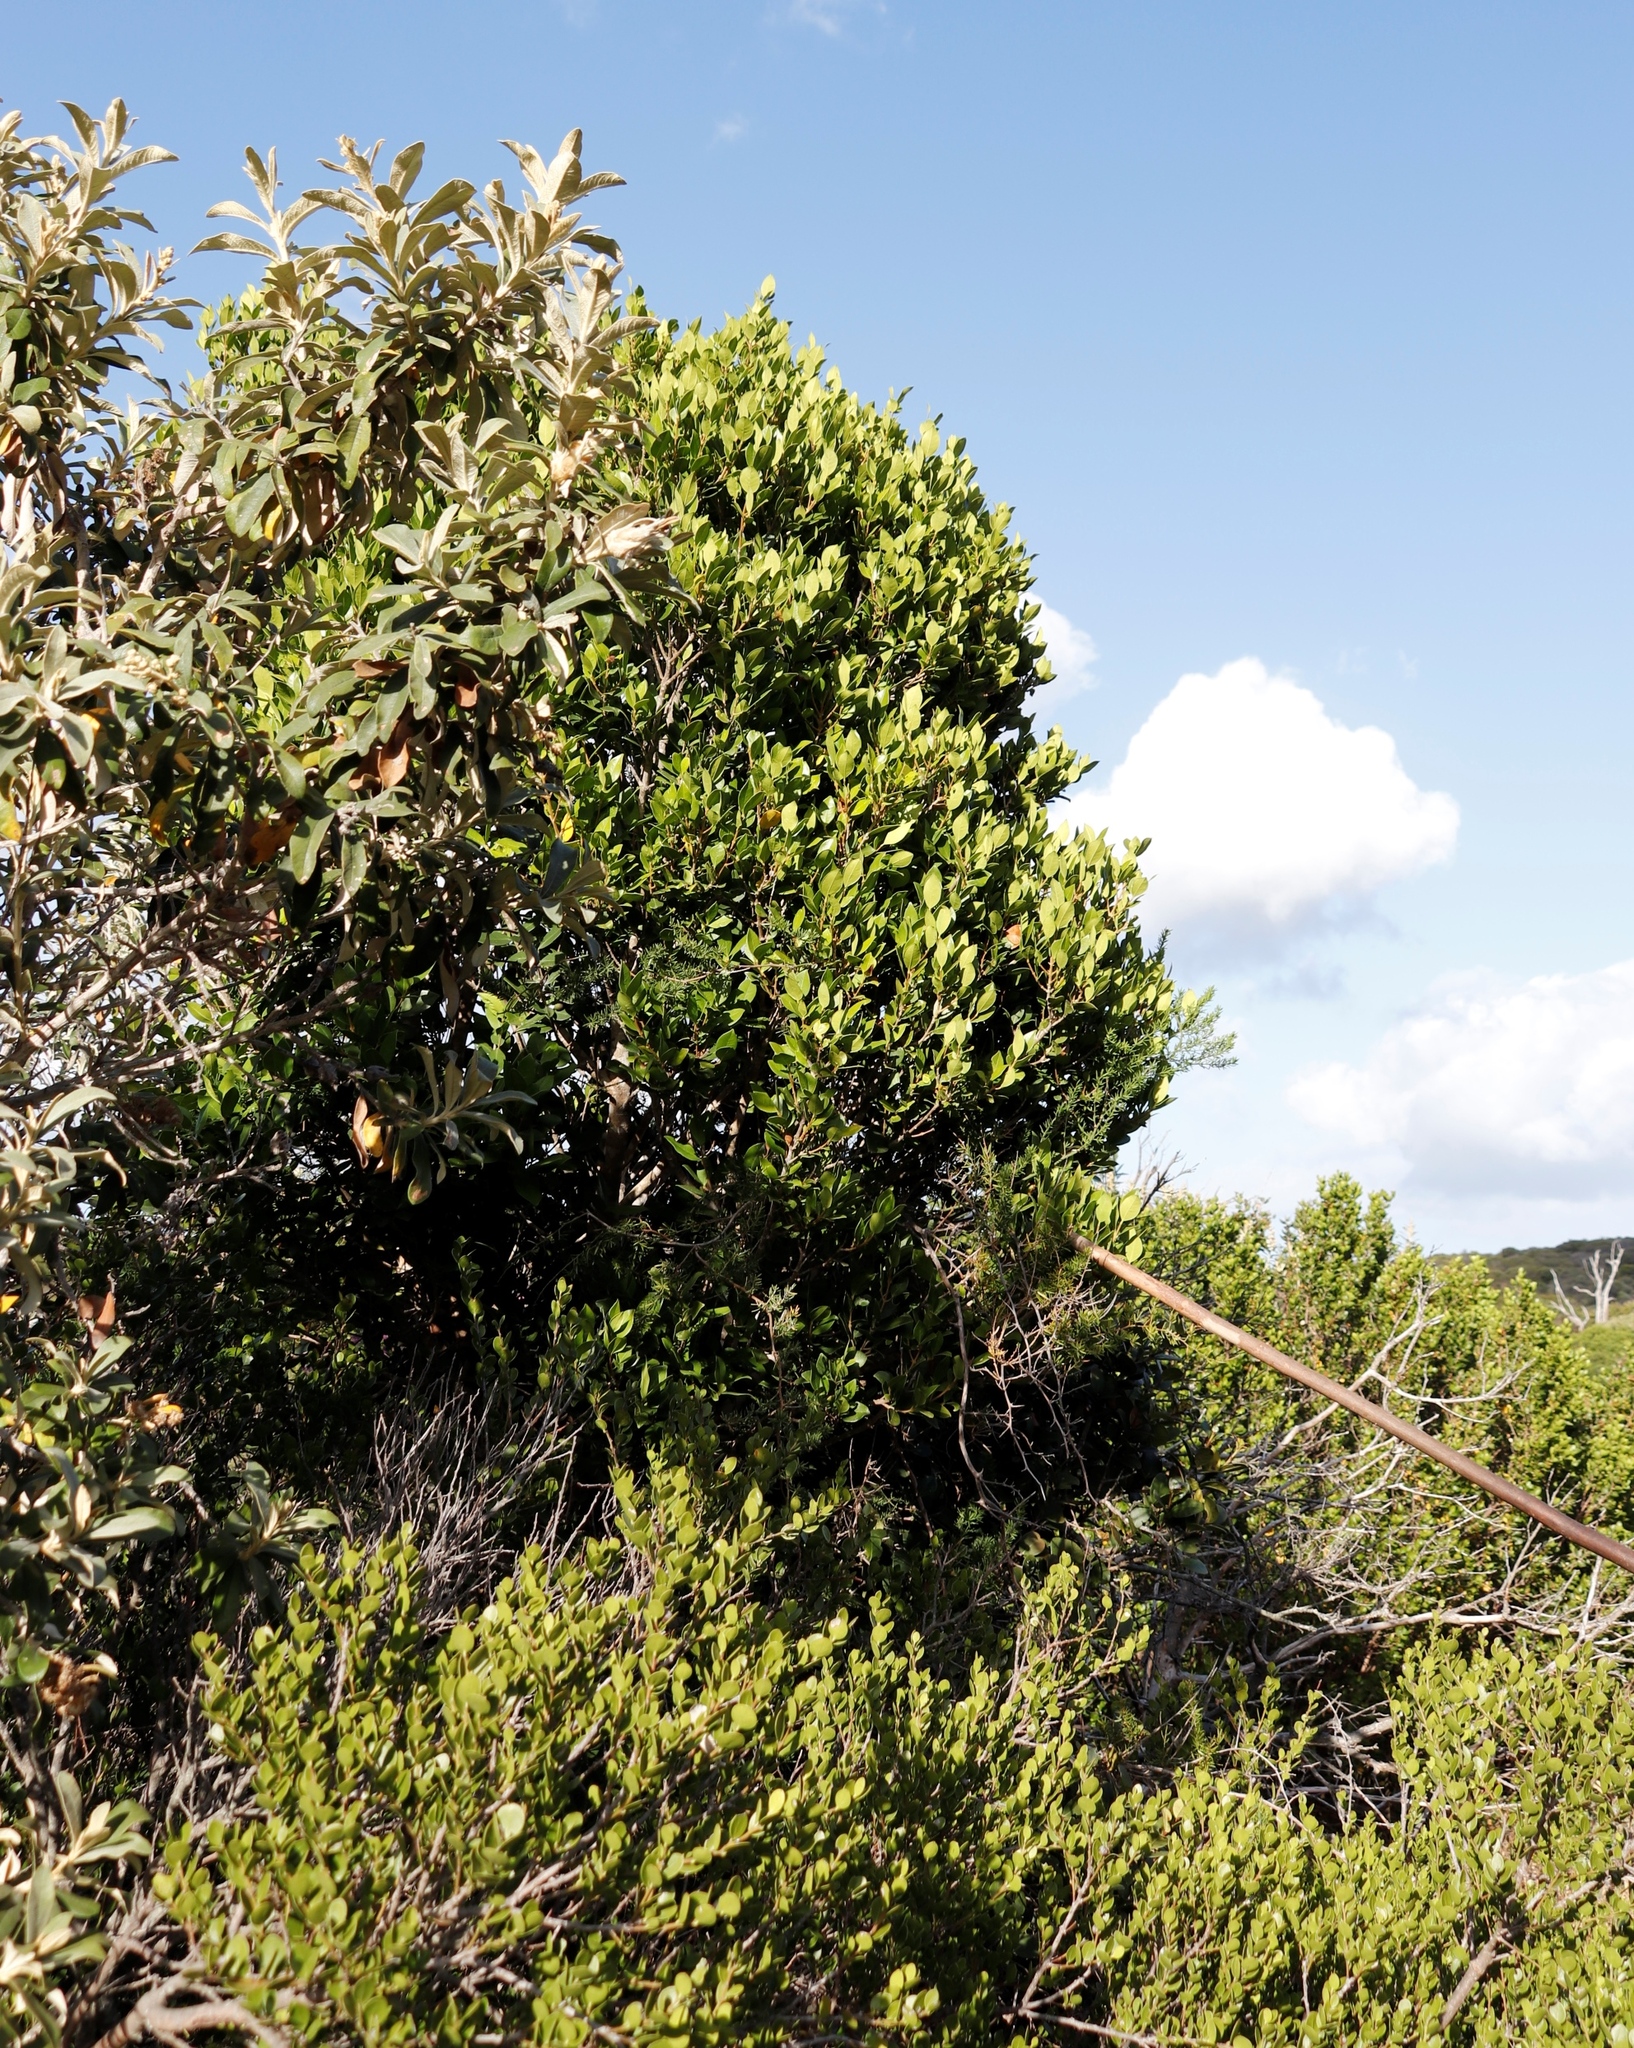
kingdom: Plantae
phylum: Tracheophyta
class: Magnoliopsida
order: Lamiales
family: Oleaceae
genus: Olea
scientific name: Olea capensis
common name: Black ironwood
